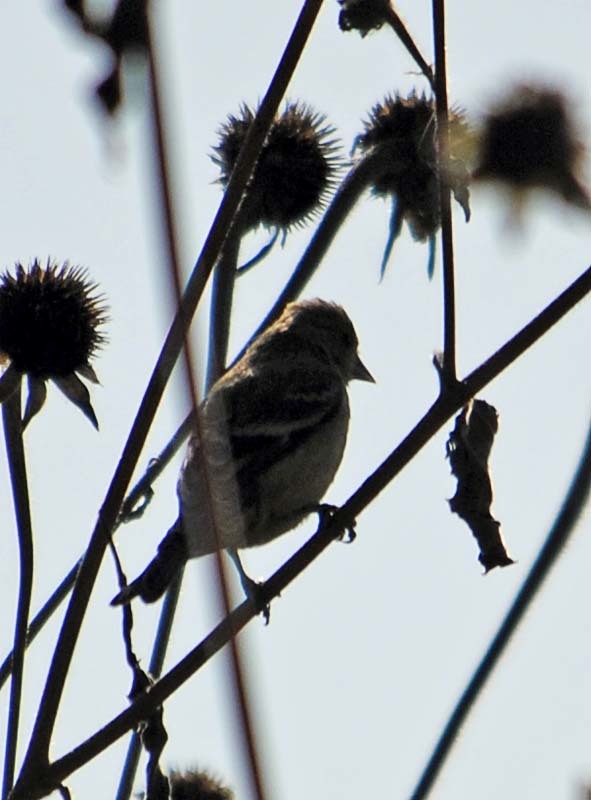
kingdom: Animalia
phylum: Chordata
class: Aves
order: Passeriformes
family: Fringillidae
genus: Spinus
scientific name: Spinus psaltria
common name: Lesser goldfinch
